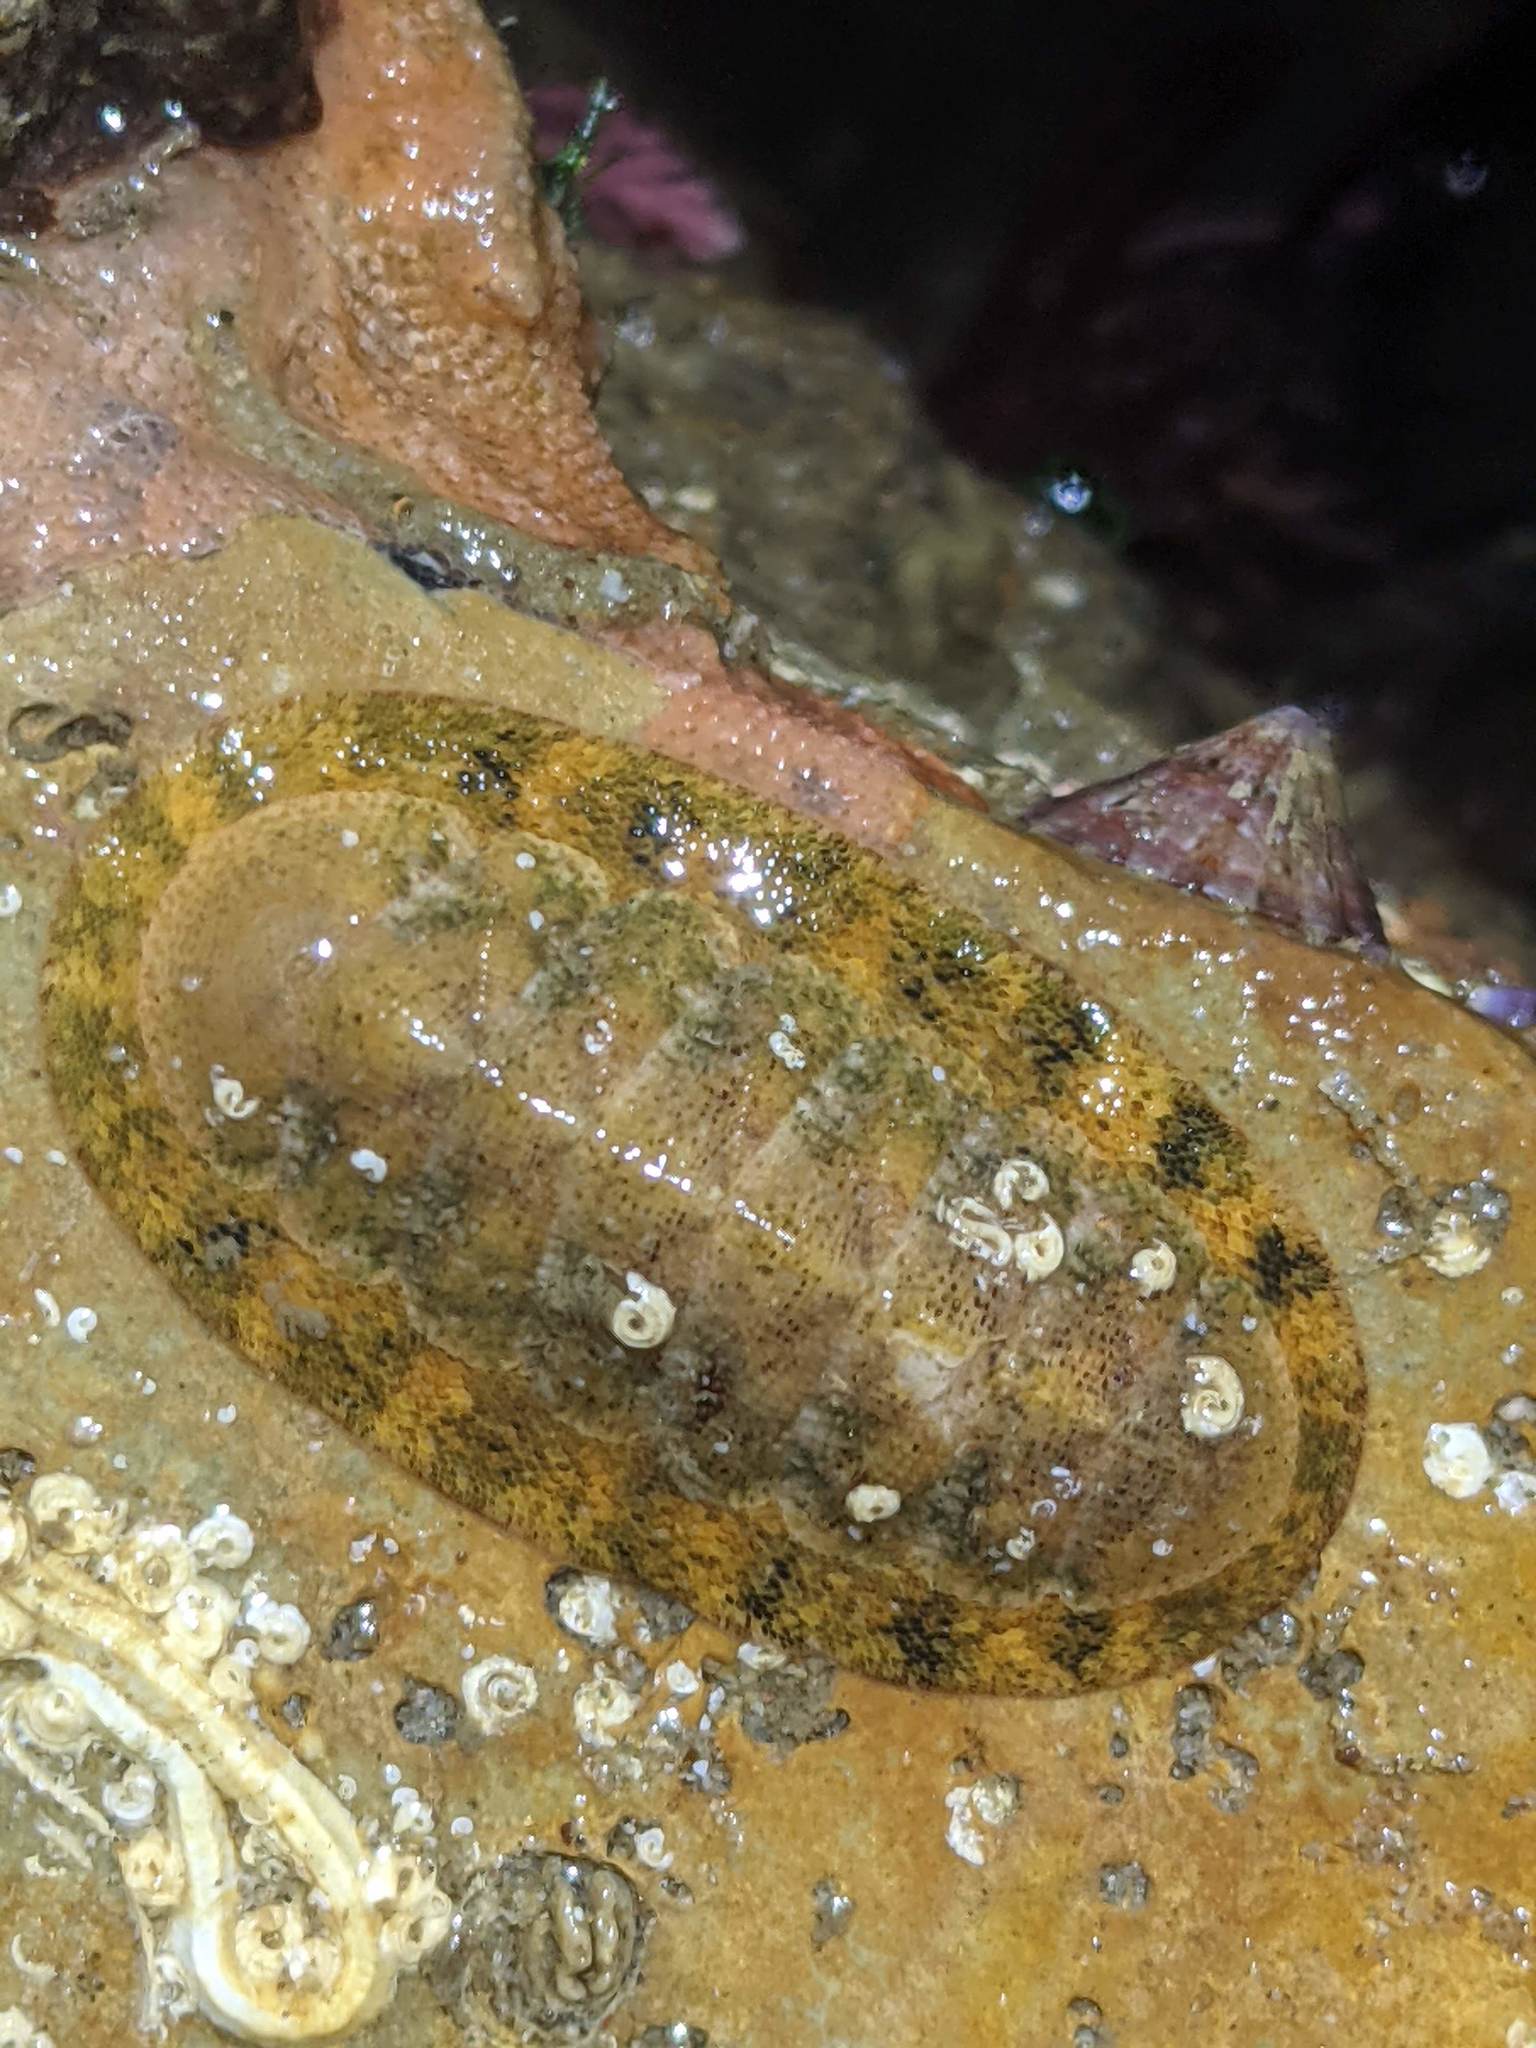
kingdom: Animalia
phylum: Mollusca
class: Polyplacophora
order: Chitonida
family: Ischnochitonidae
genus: Lepidozona
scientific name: Lepidozona pectinulata
